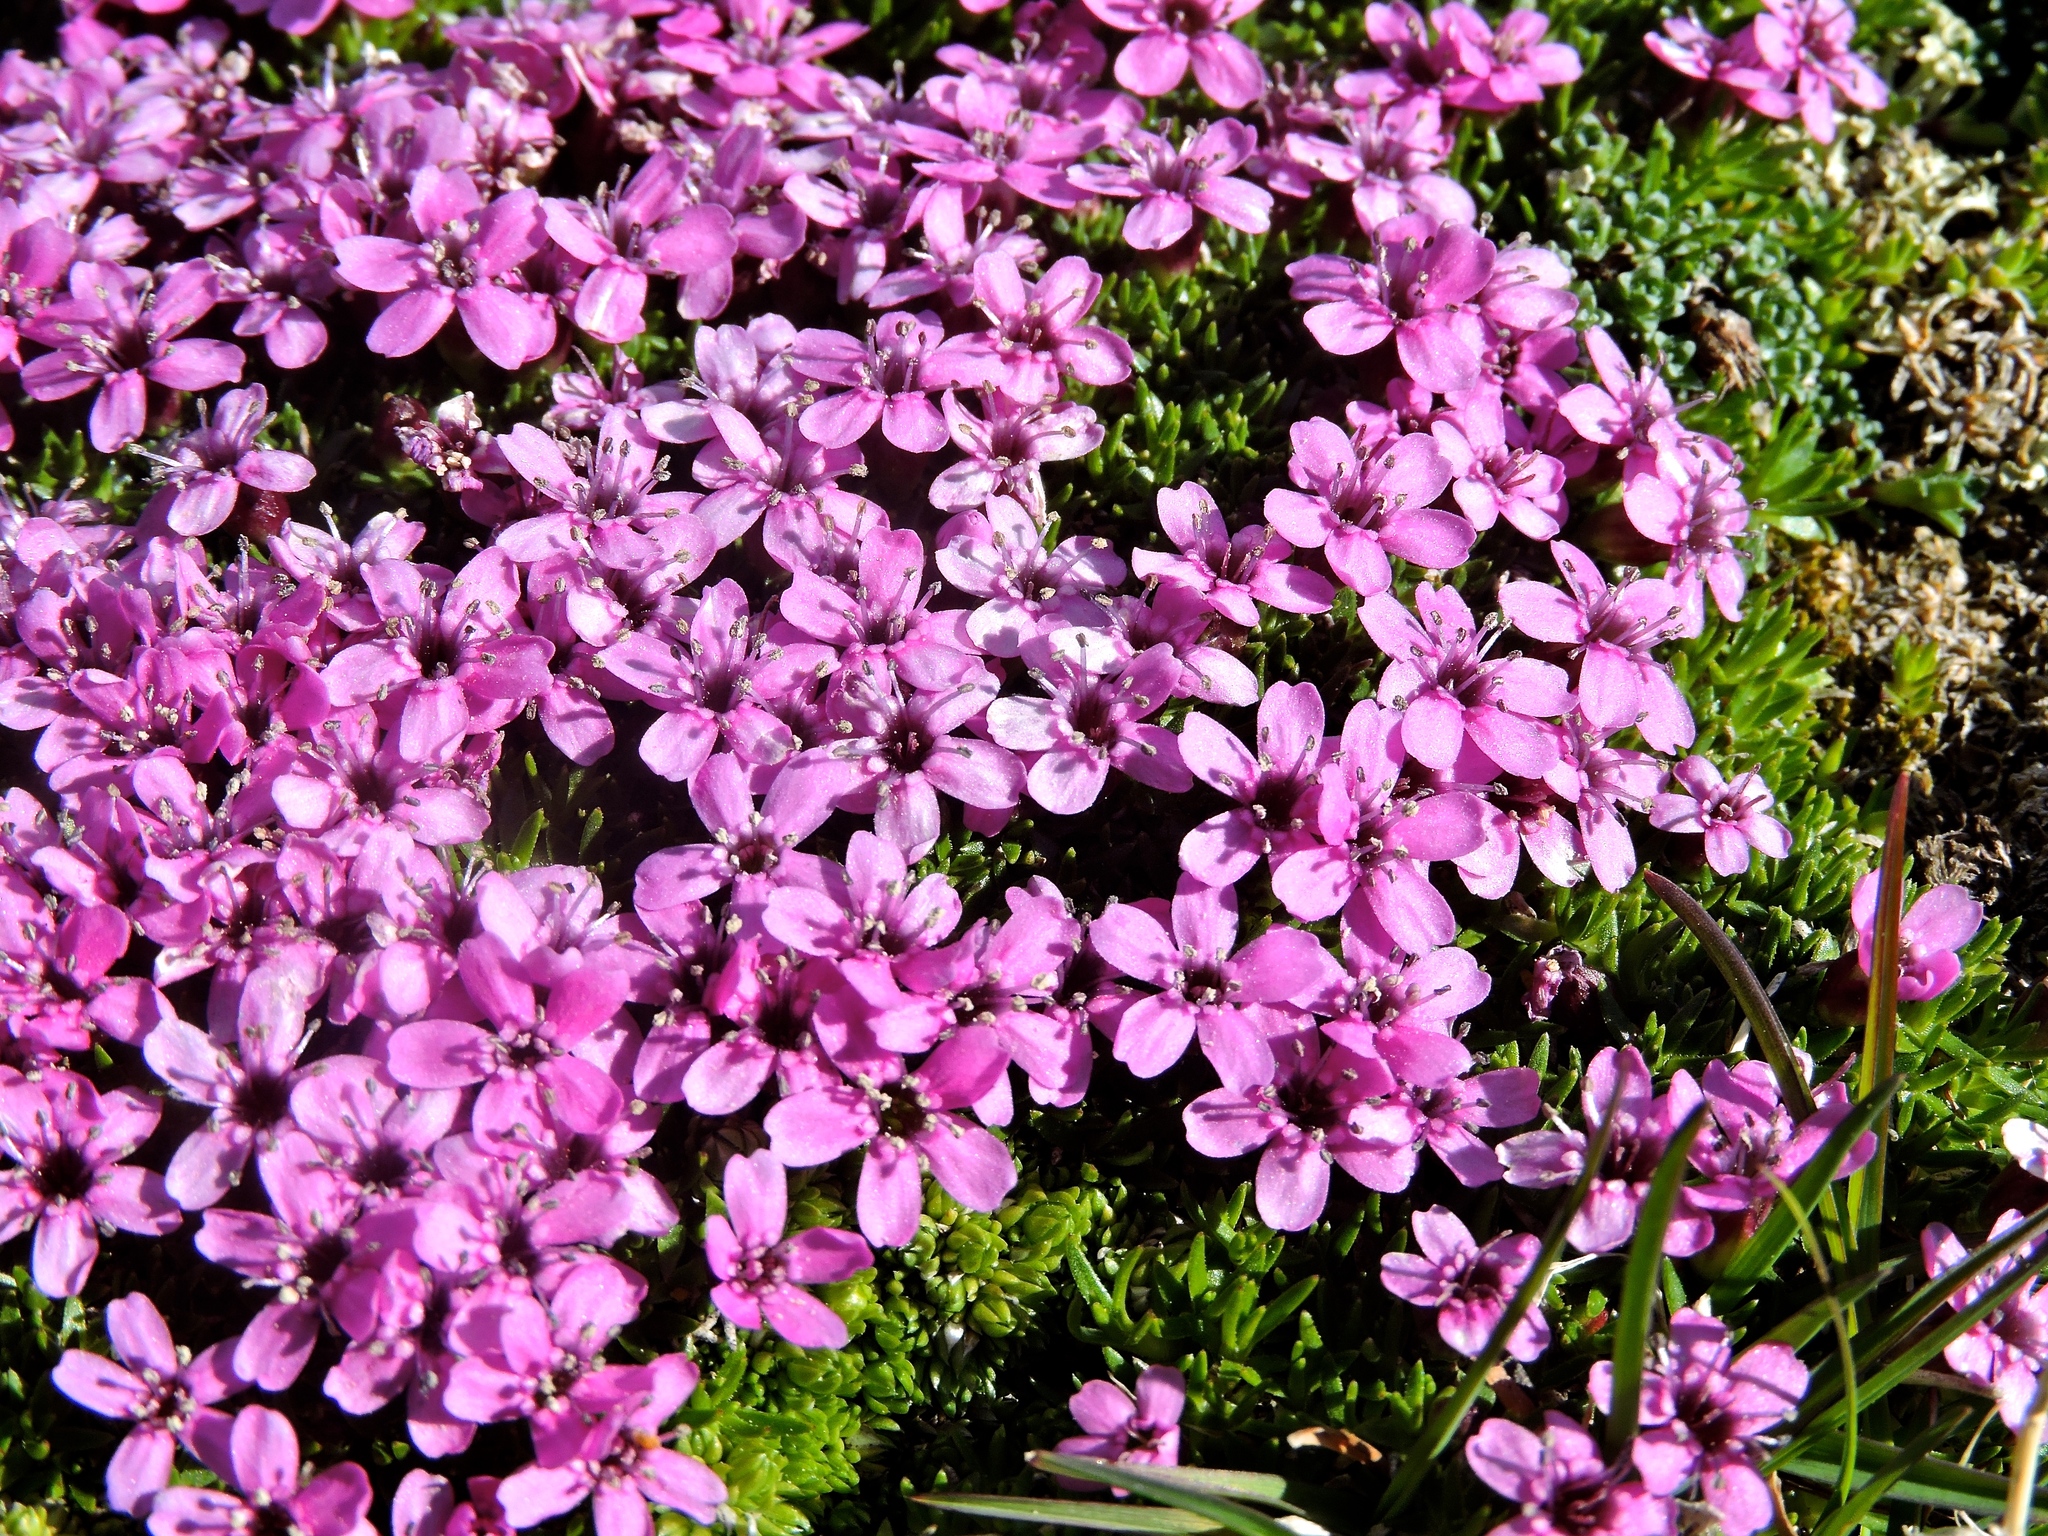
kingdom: Plantae
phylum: Tracheophyta
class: Magnoliopsida
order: Caryophyllales
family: Caryophyllaceae
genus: Silene
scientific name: Silene acaulis
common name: Moss campion
